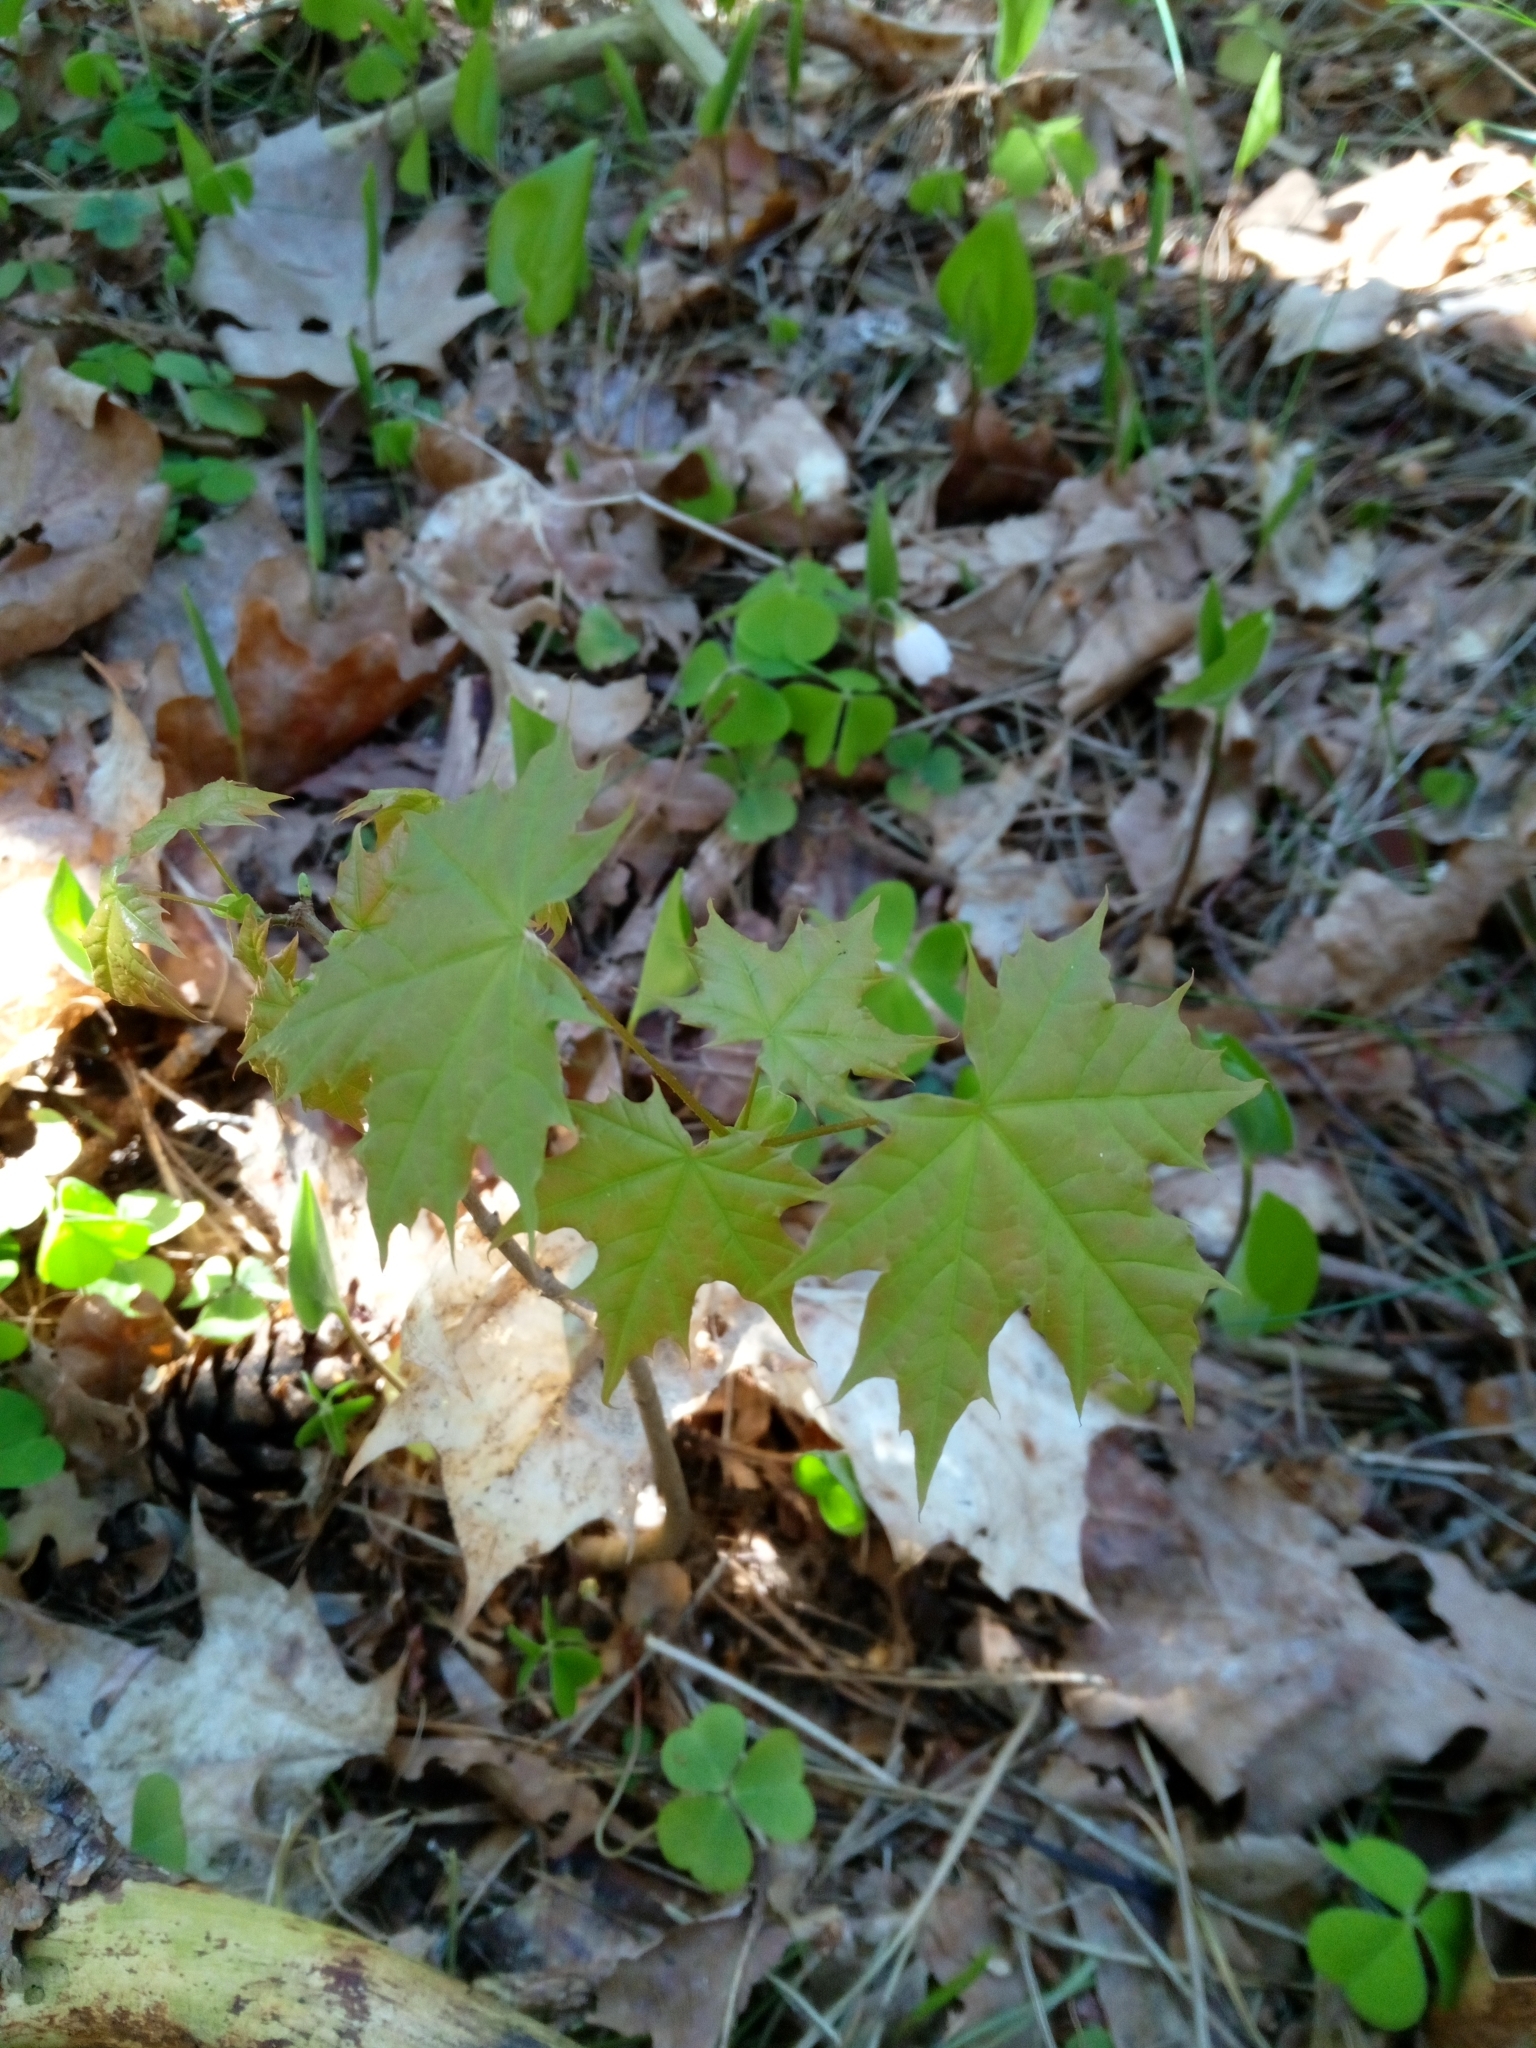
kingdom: Plantae
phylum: Tracheophyta
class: Magnoliopsida
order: Sapindales
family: Sapindaceae
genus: Acer
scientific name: Acer platanoides
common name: Norway maple
